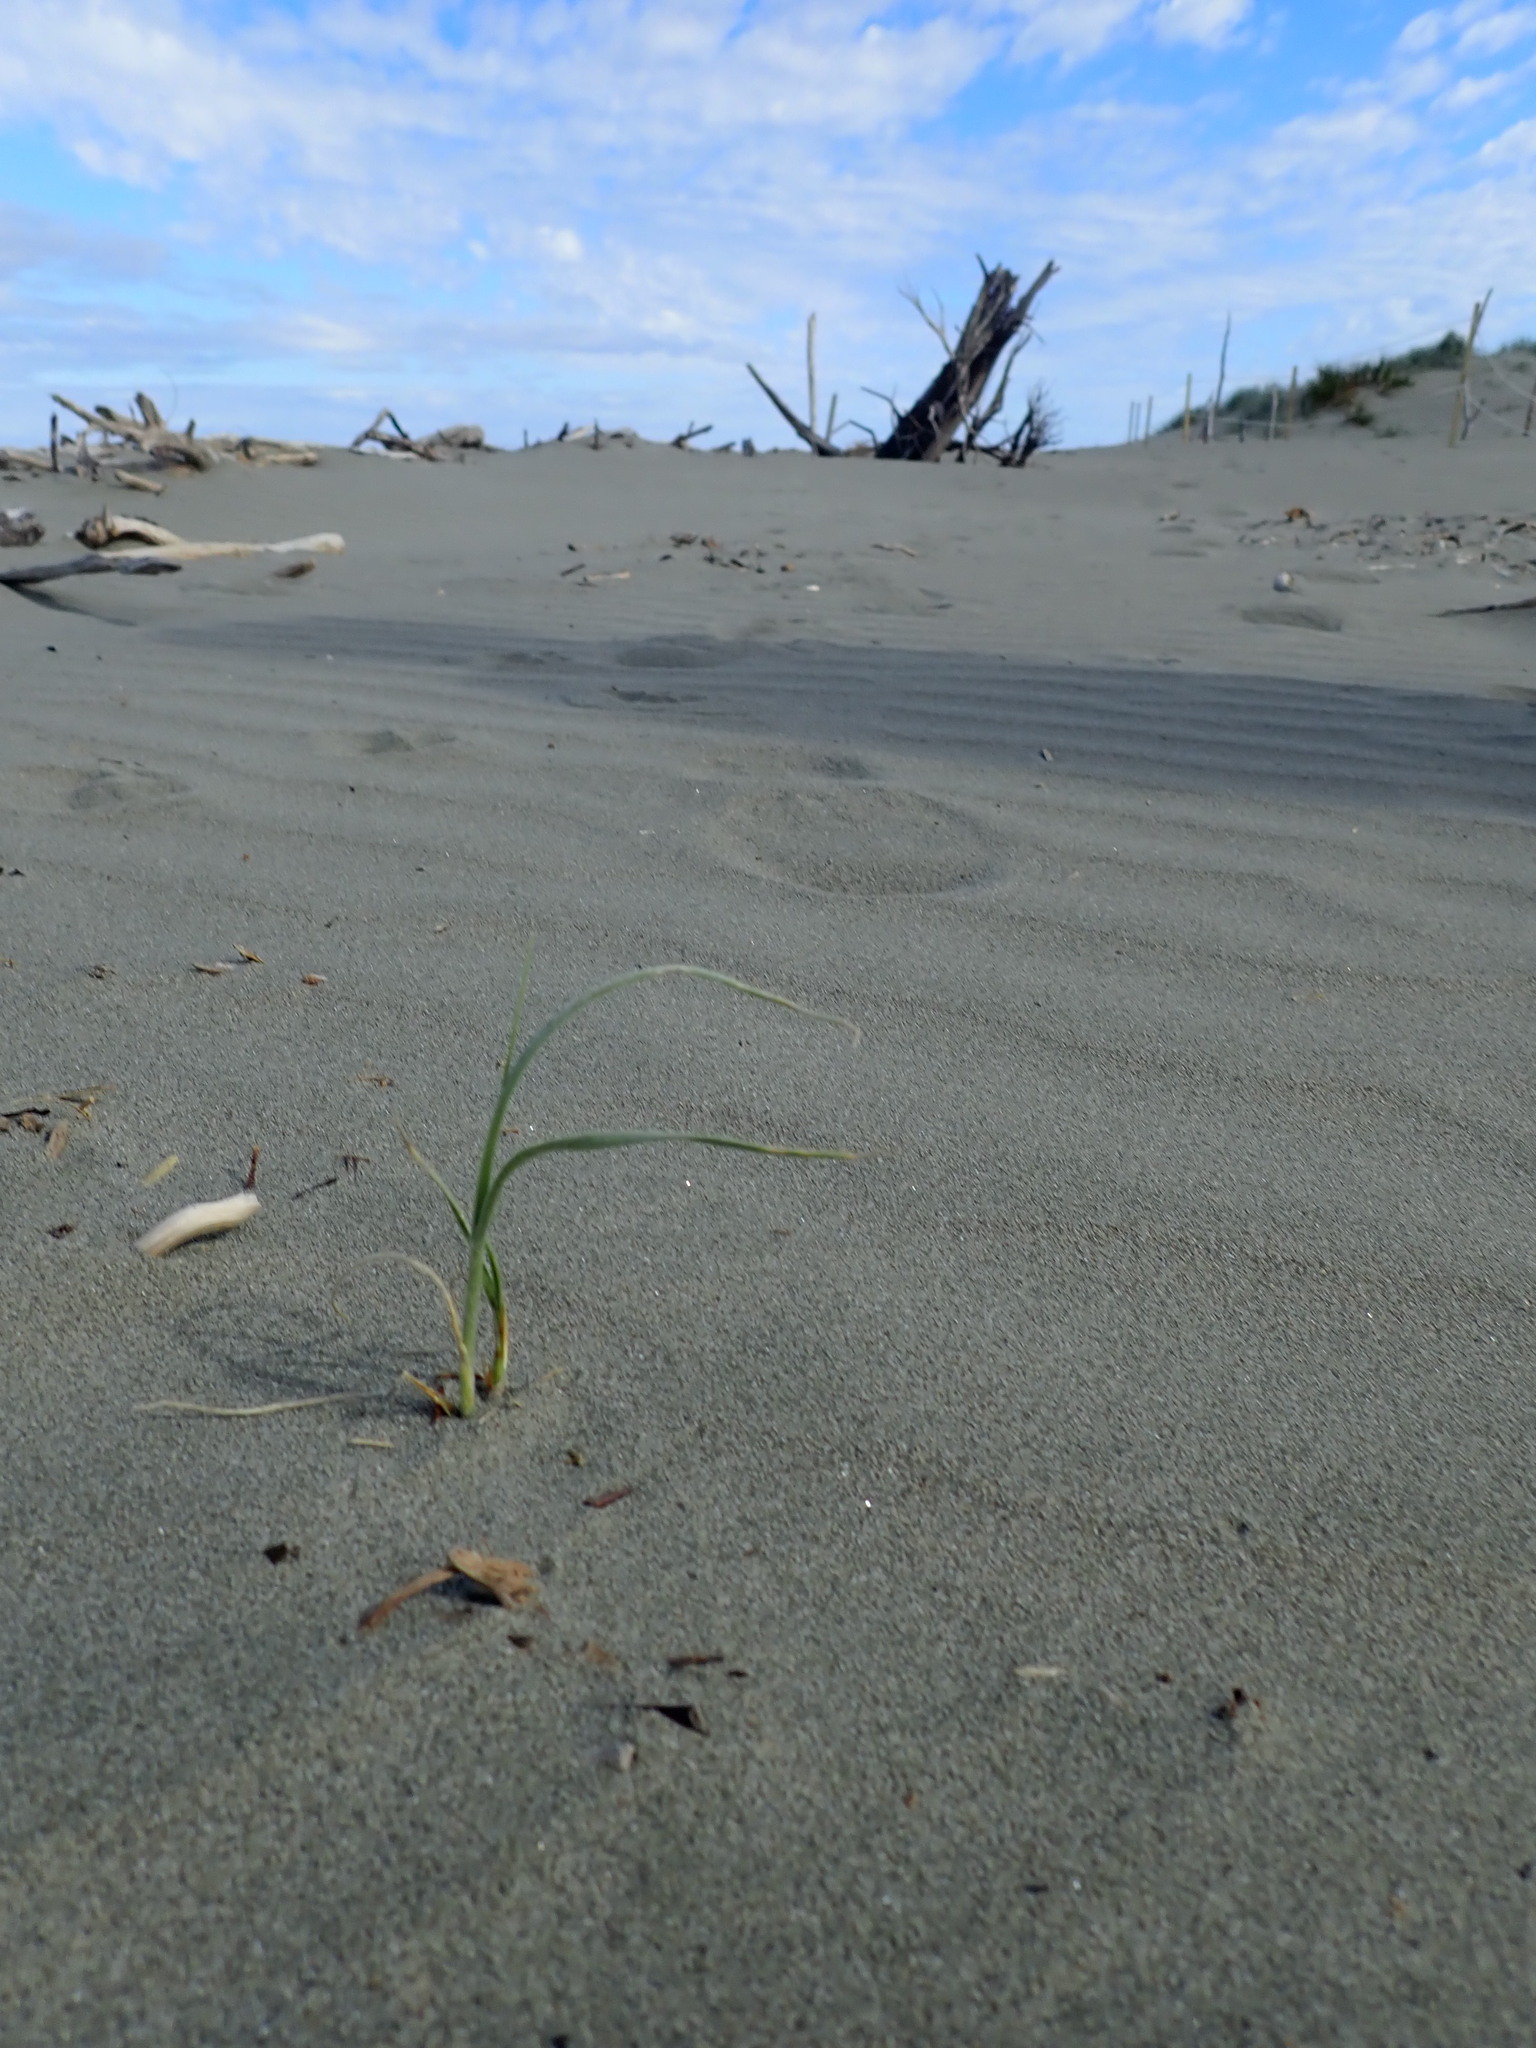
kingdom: Plantae
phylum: Tracheophyta
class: Liliopsida
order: Poales
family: Poaceae
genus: Spinifex
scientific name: Spinifex sericeus
